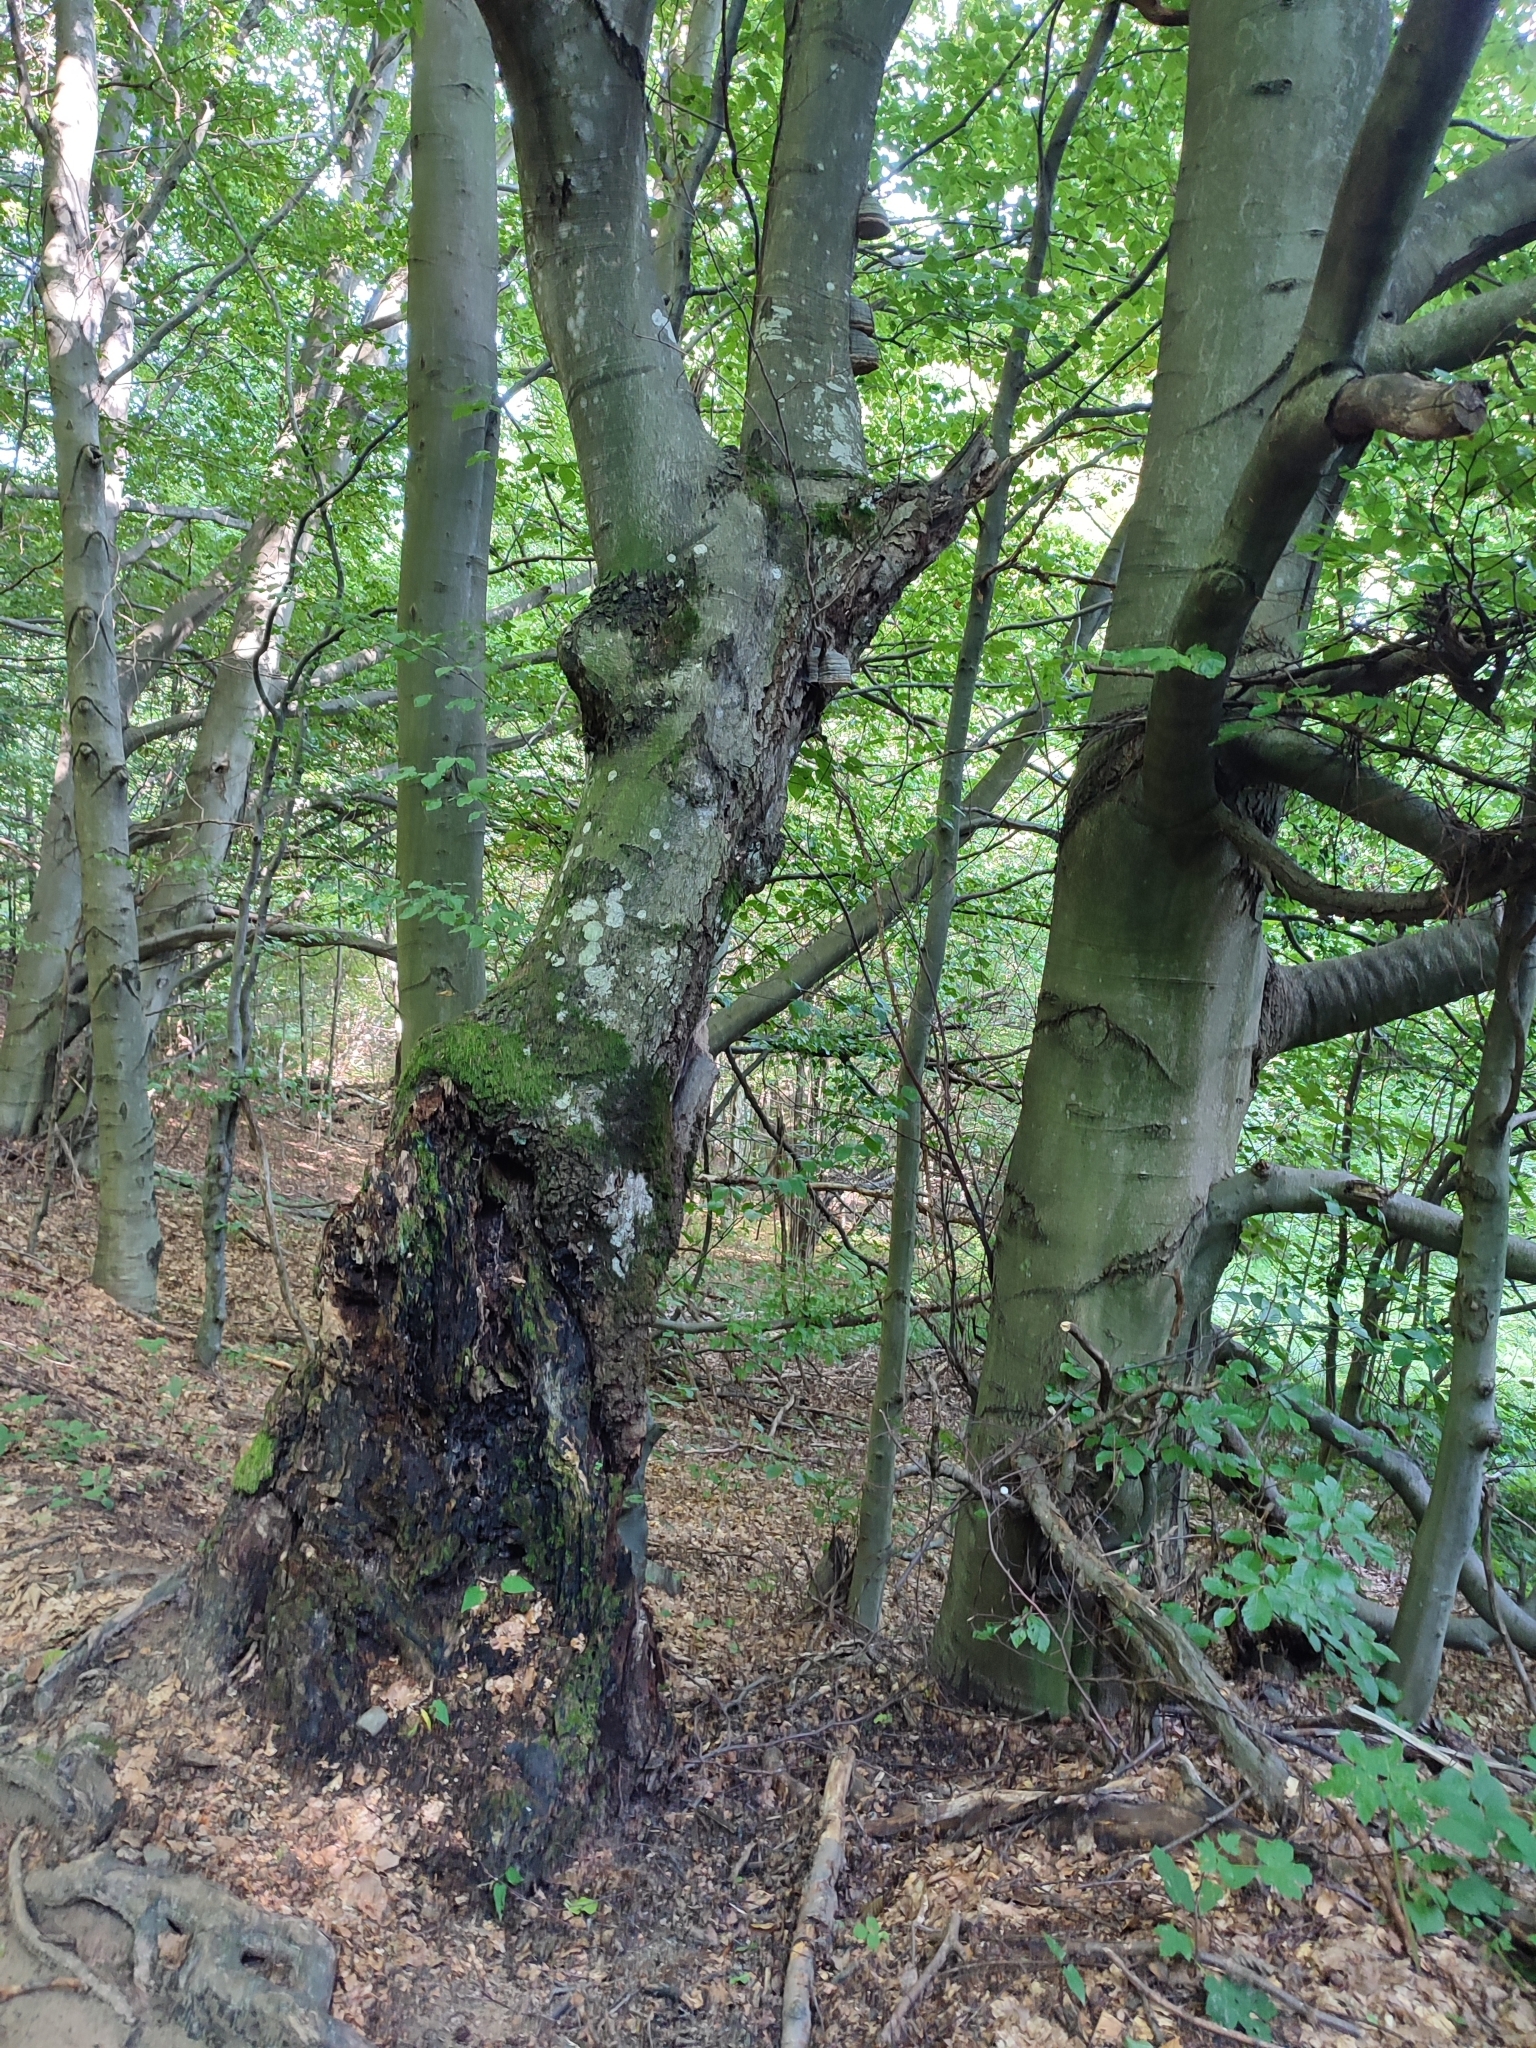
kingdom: Plantae
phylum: Tracheophyta
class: Magnoliopsida
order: Fagales
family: Fagaceae
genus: Fagus
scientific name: Fagus sylvatica
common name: Beech
